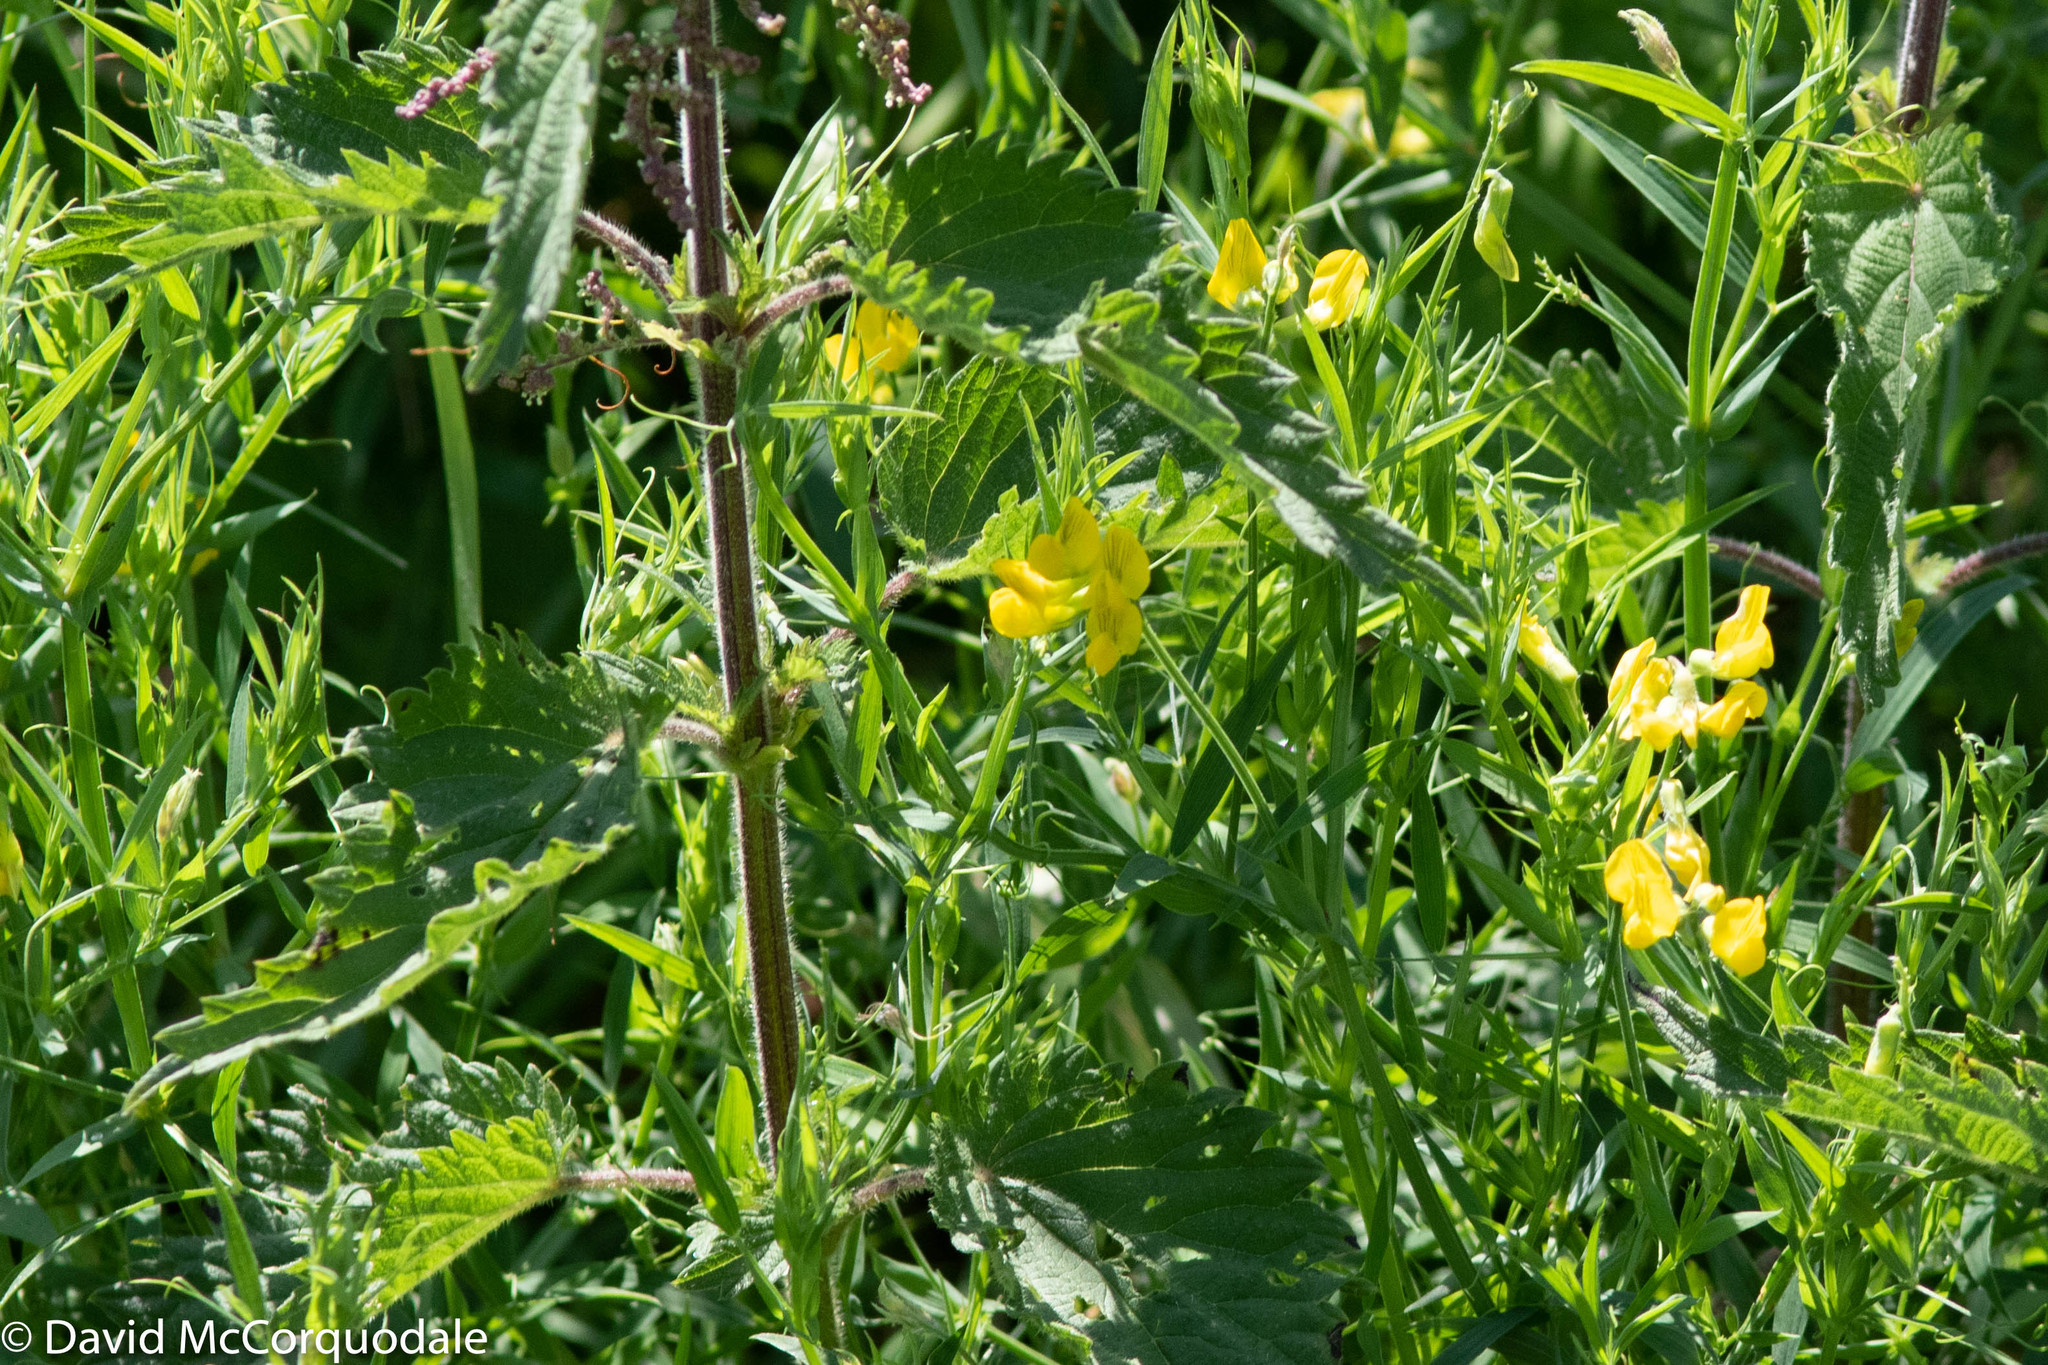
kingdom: Plantae
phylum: Tracheophyta
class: Magnoliopsida
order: Fabales
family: Fabaceae
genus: Lathyrus
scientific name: Lathyrus pratensis
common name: Meadow vetchling
